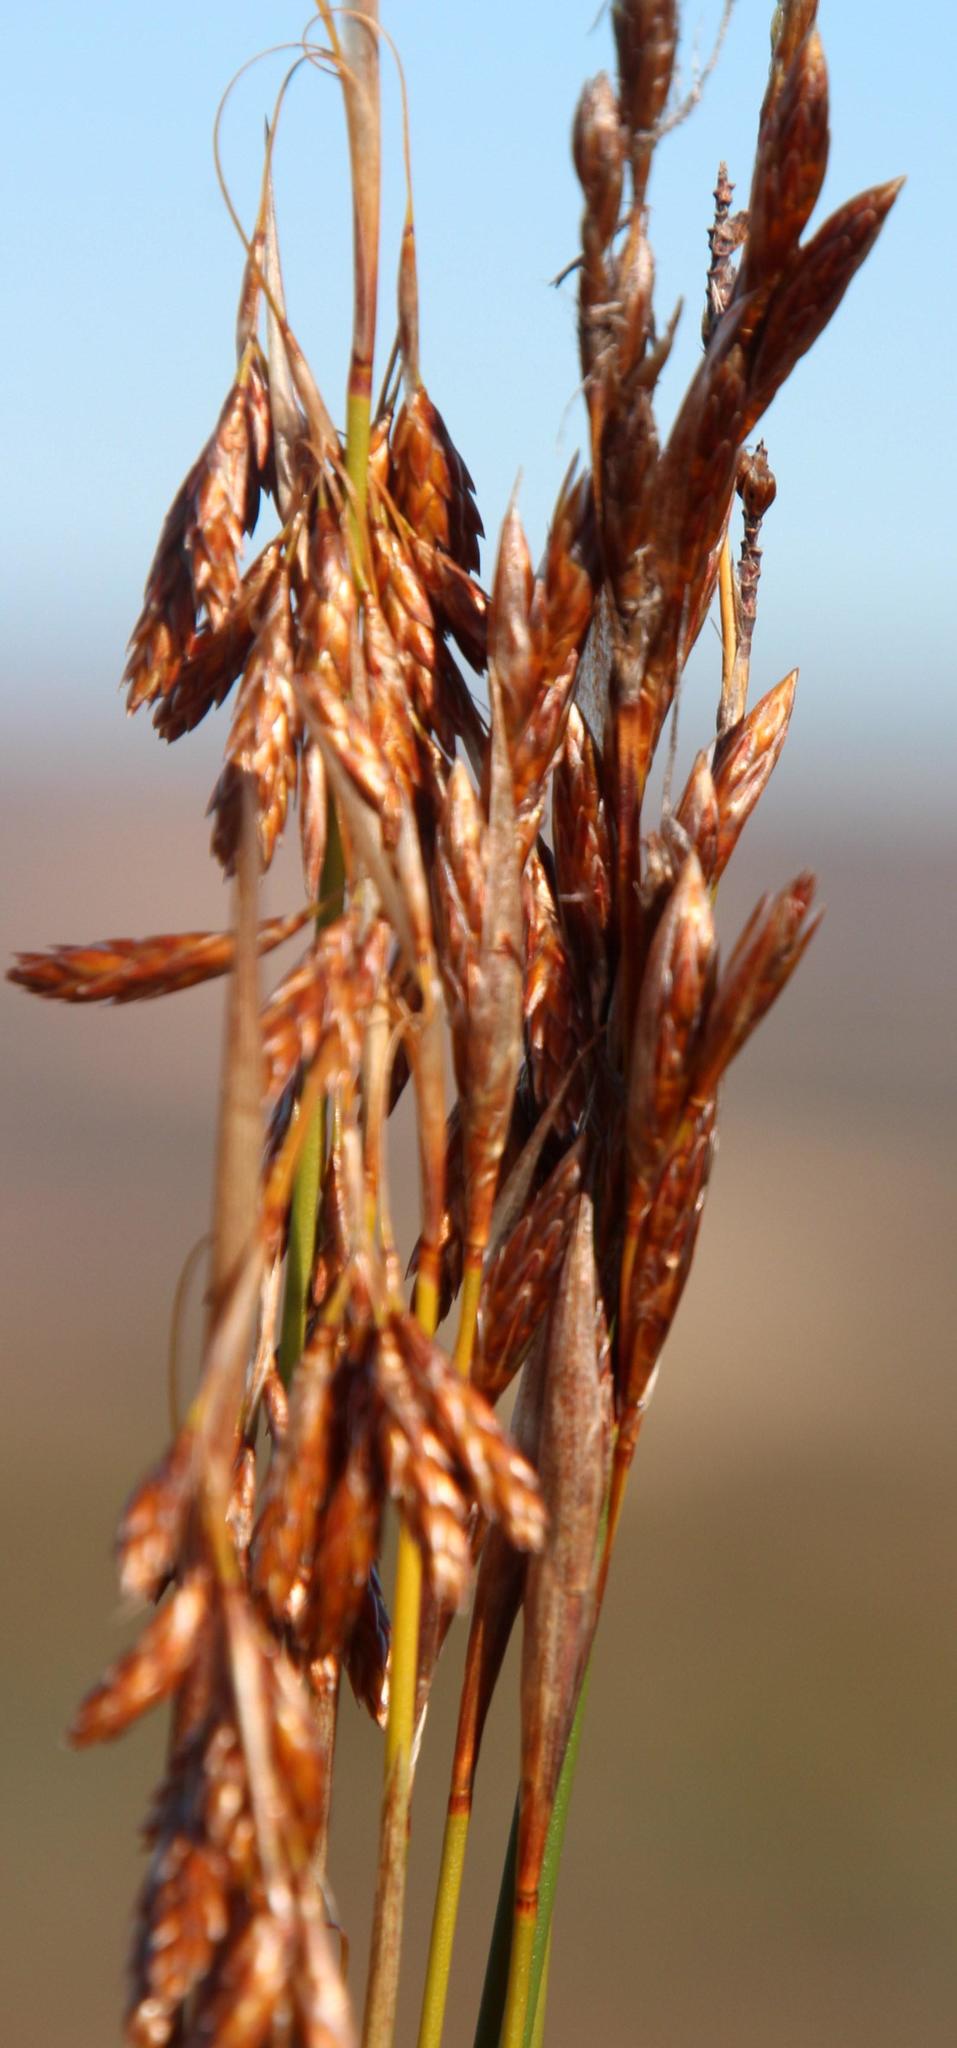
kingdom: Plantae
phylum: Tracheophyta
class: Liliopsida
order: Poales
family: Restionaceae
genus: Thamnochortus
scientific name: Thamnochortus punctatus
